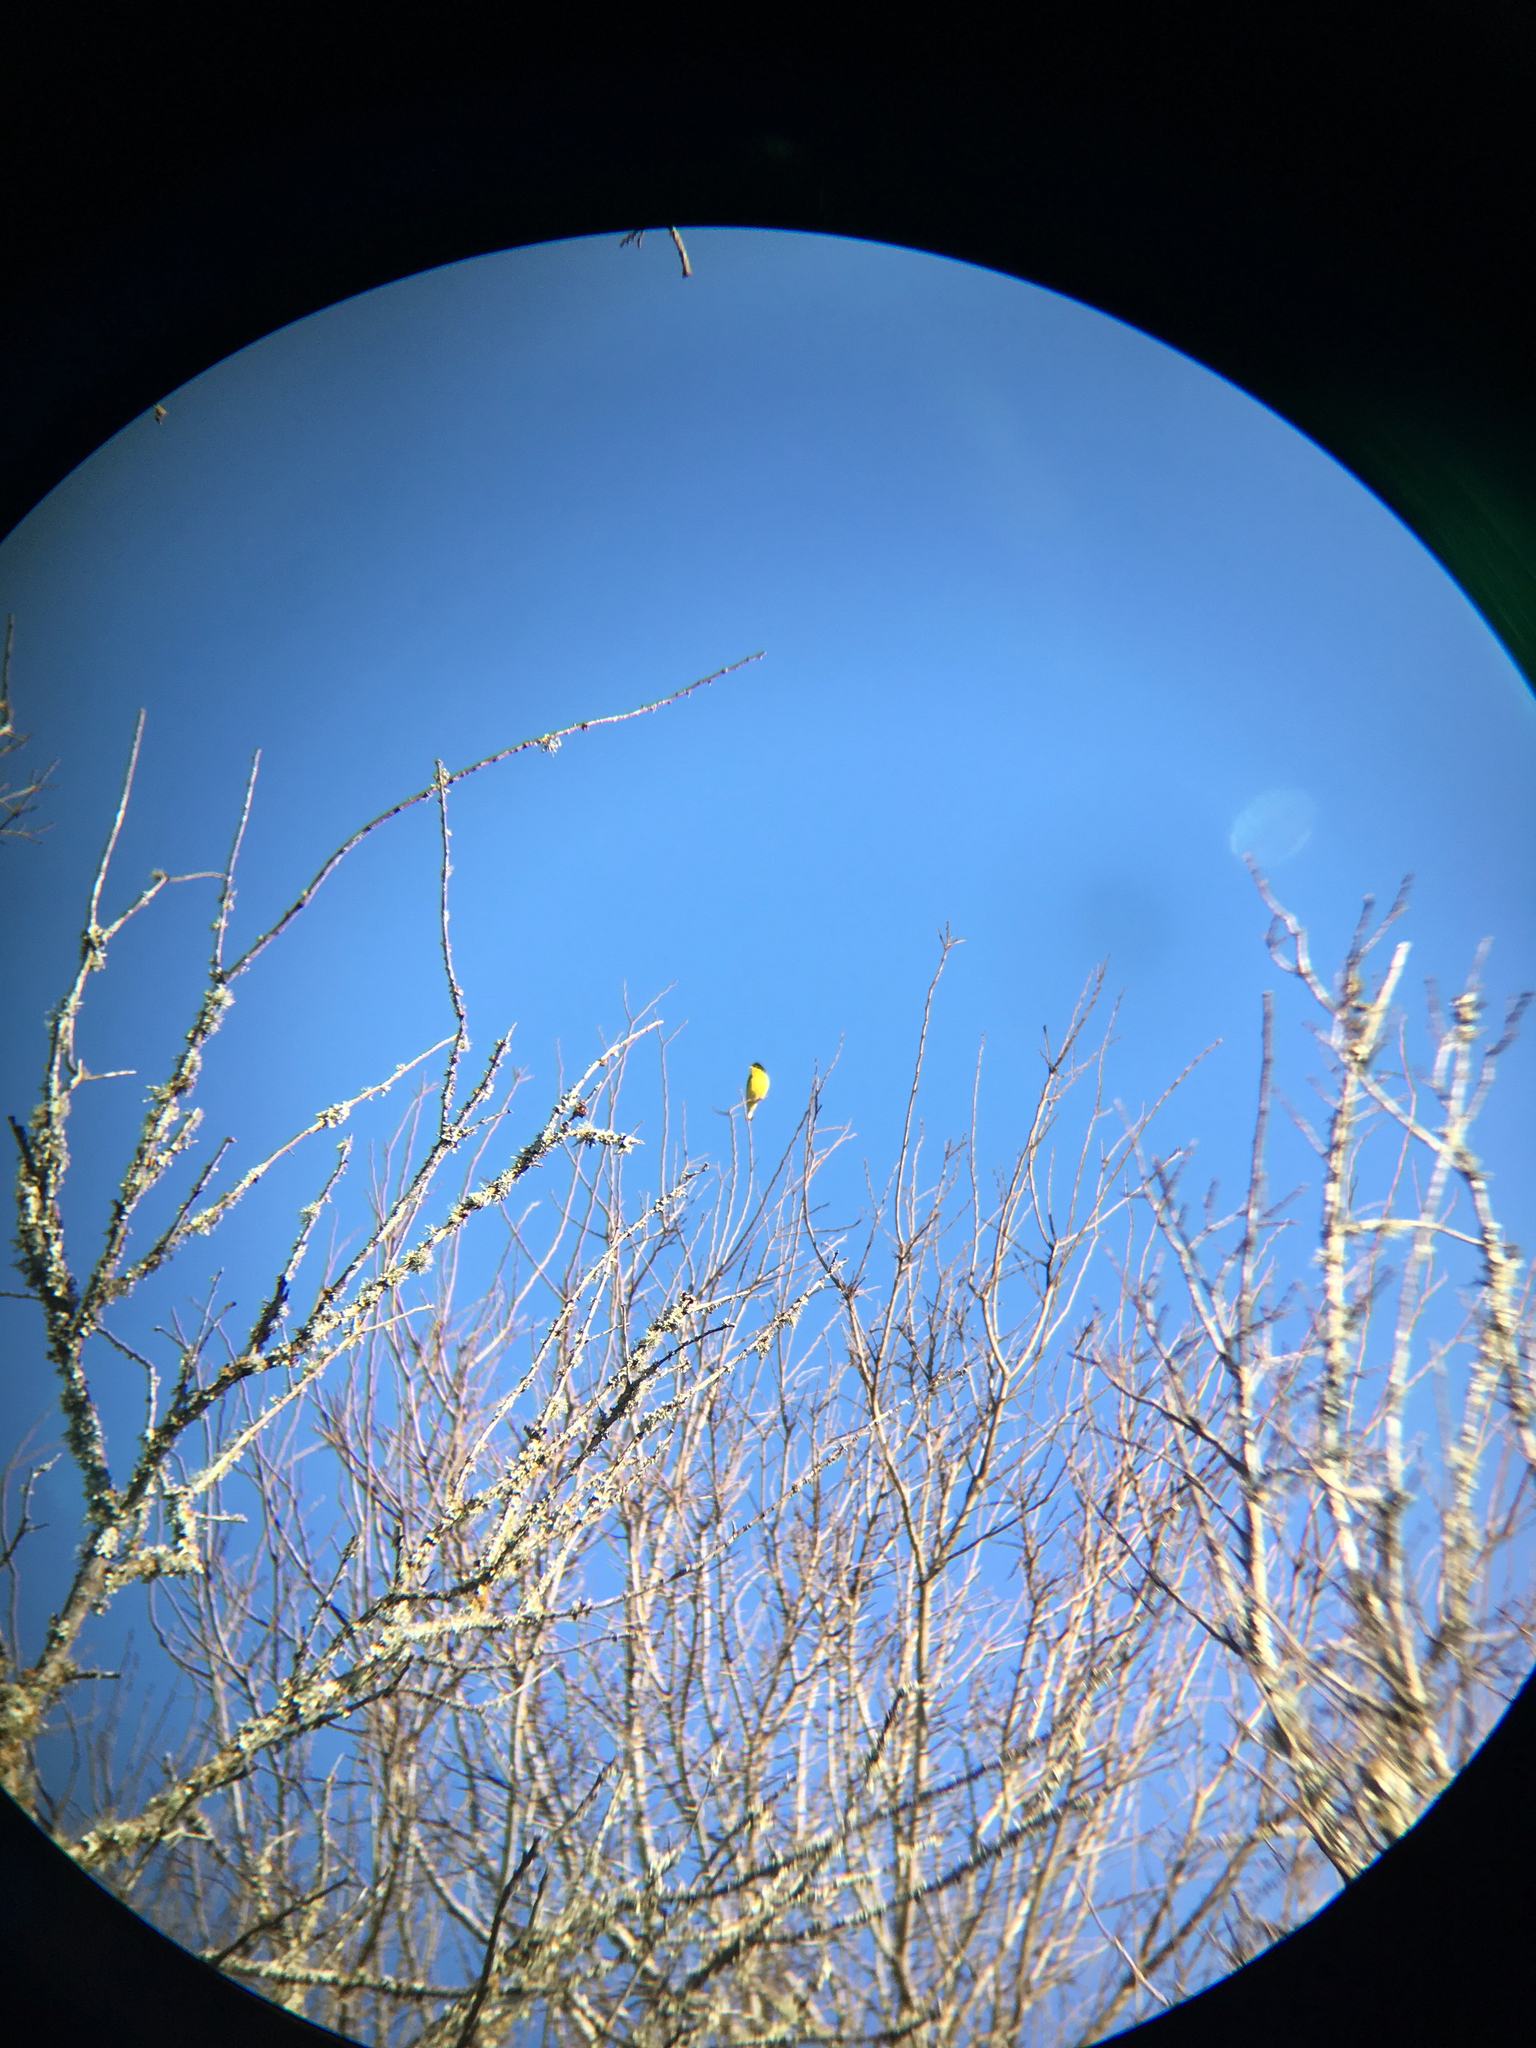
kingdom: Animalia
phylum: Chordata
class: Aves
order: Passeriformes
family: Fringillidae
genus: Spinus
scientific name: Spinus psaltria
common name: Lesser goldfinch
